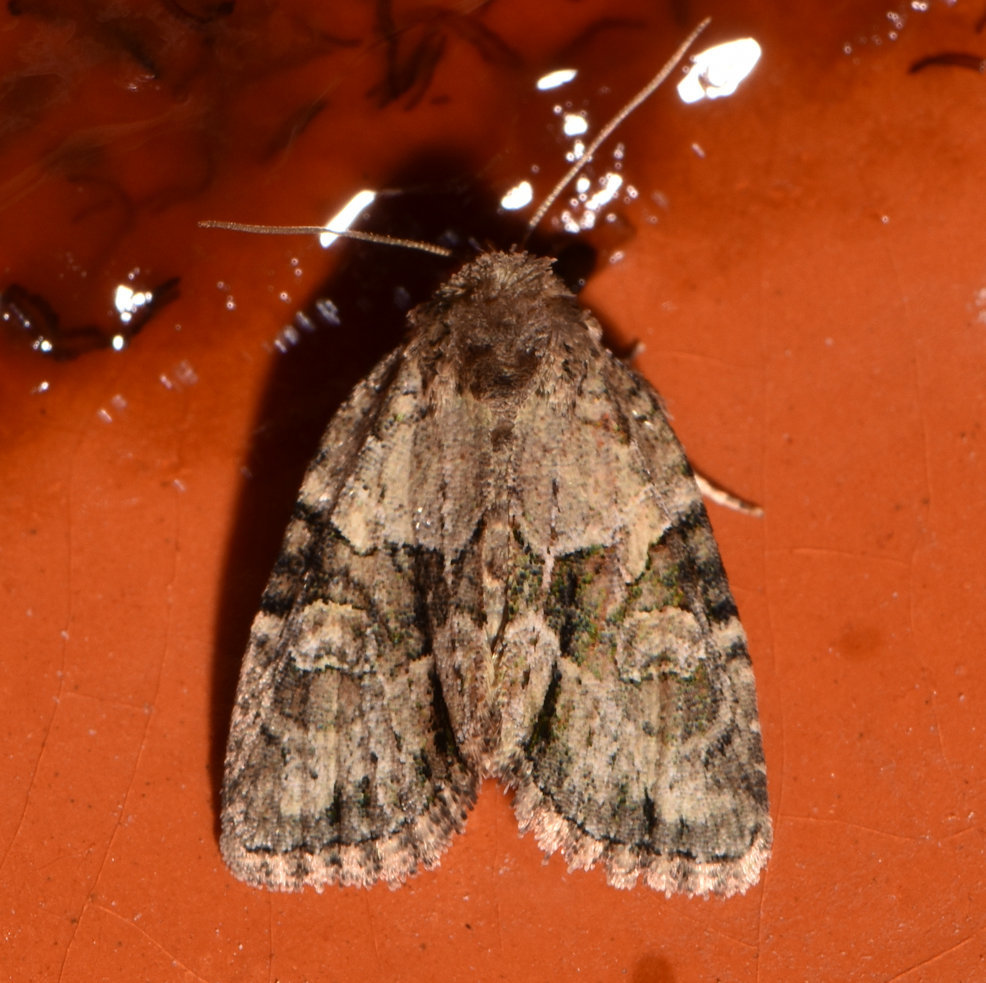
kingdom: Animalia
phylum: Arthropoda
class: Insecta
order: Lepidoptera
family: Noctuidae
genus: Neoligia
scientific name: Neoligia exhausta
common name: Exhausted brocade
